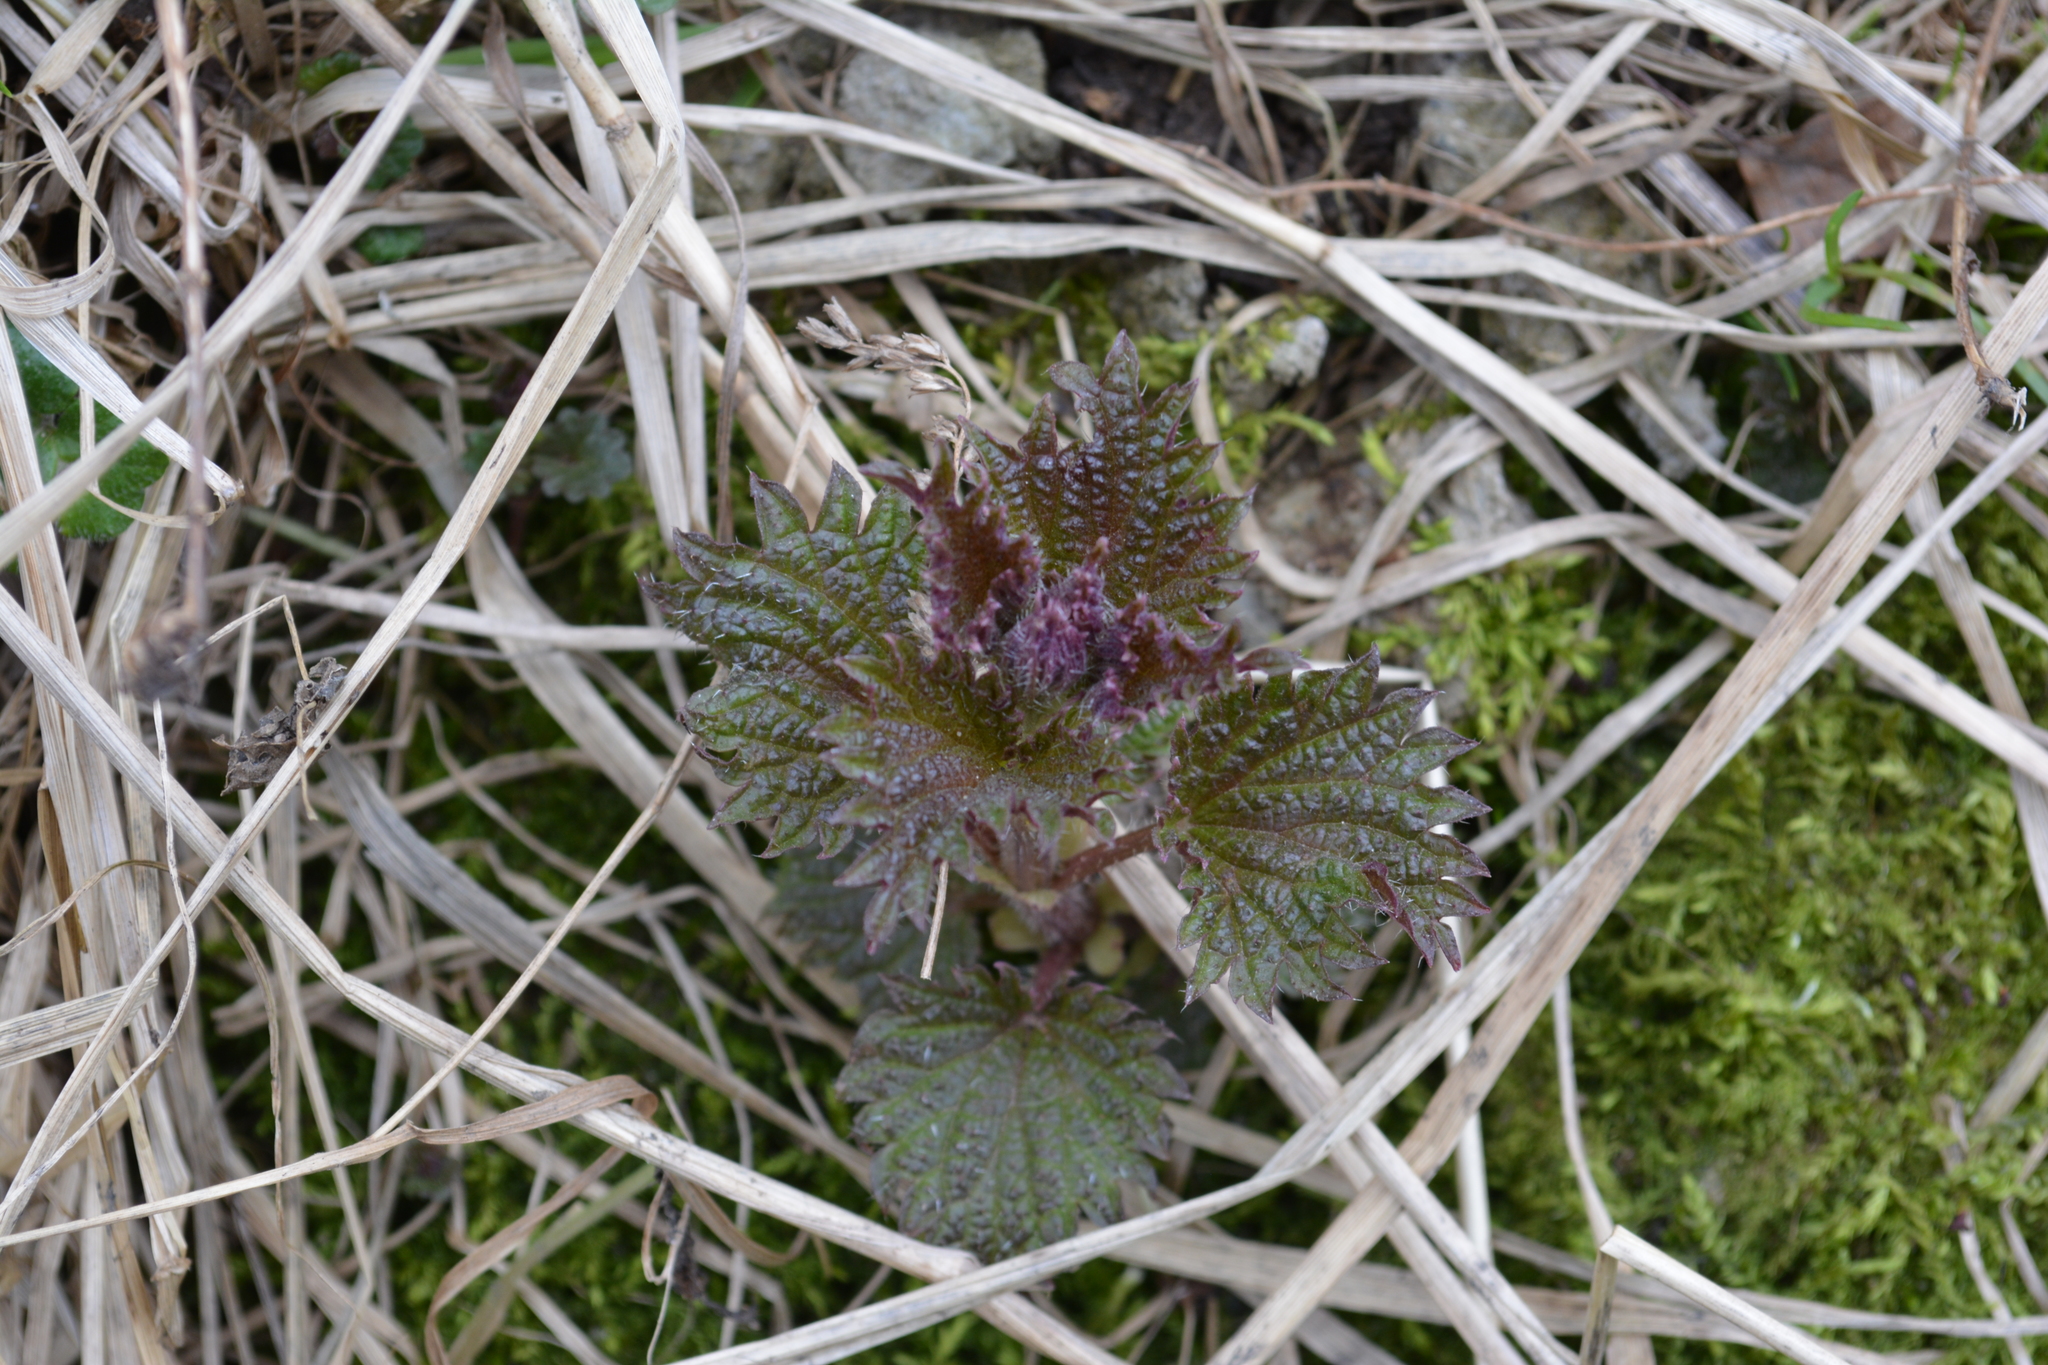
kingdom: Plantae
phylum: Tracheophyta
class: Magnoliopsida
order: Rosales
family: Urticaceae
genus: Urtica
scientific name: Urtica dioica
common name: Common nettle
